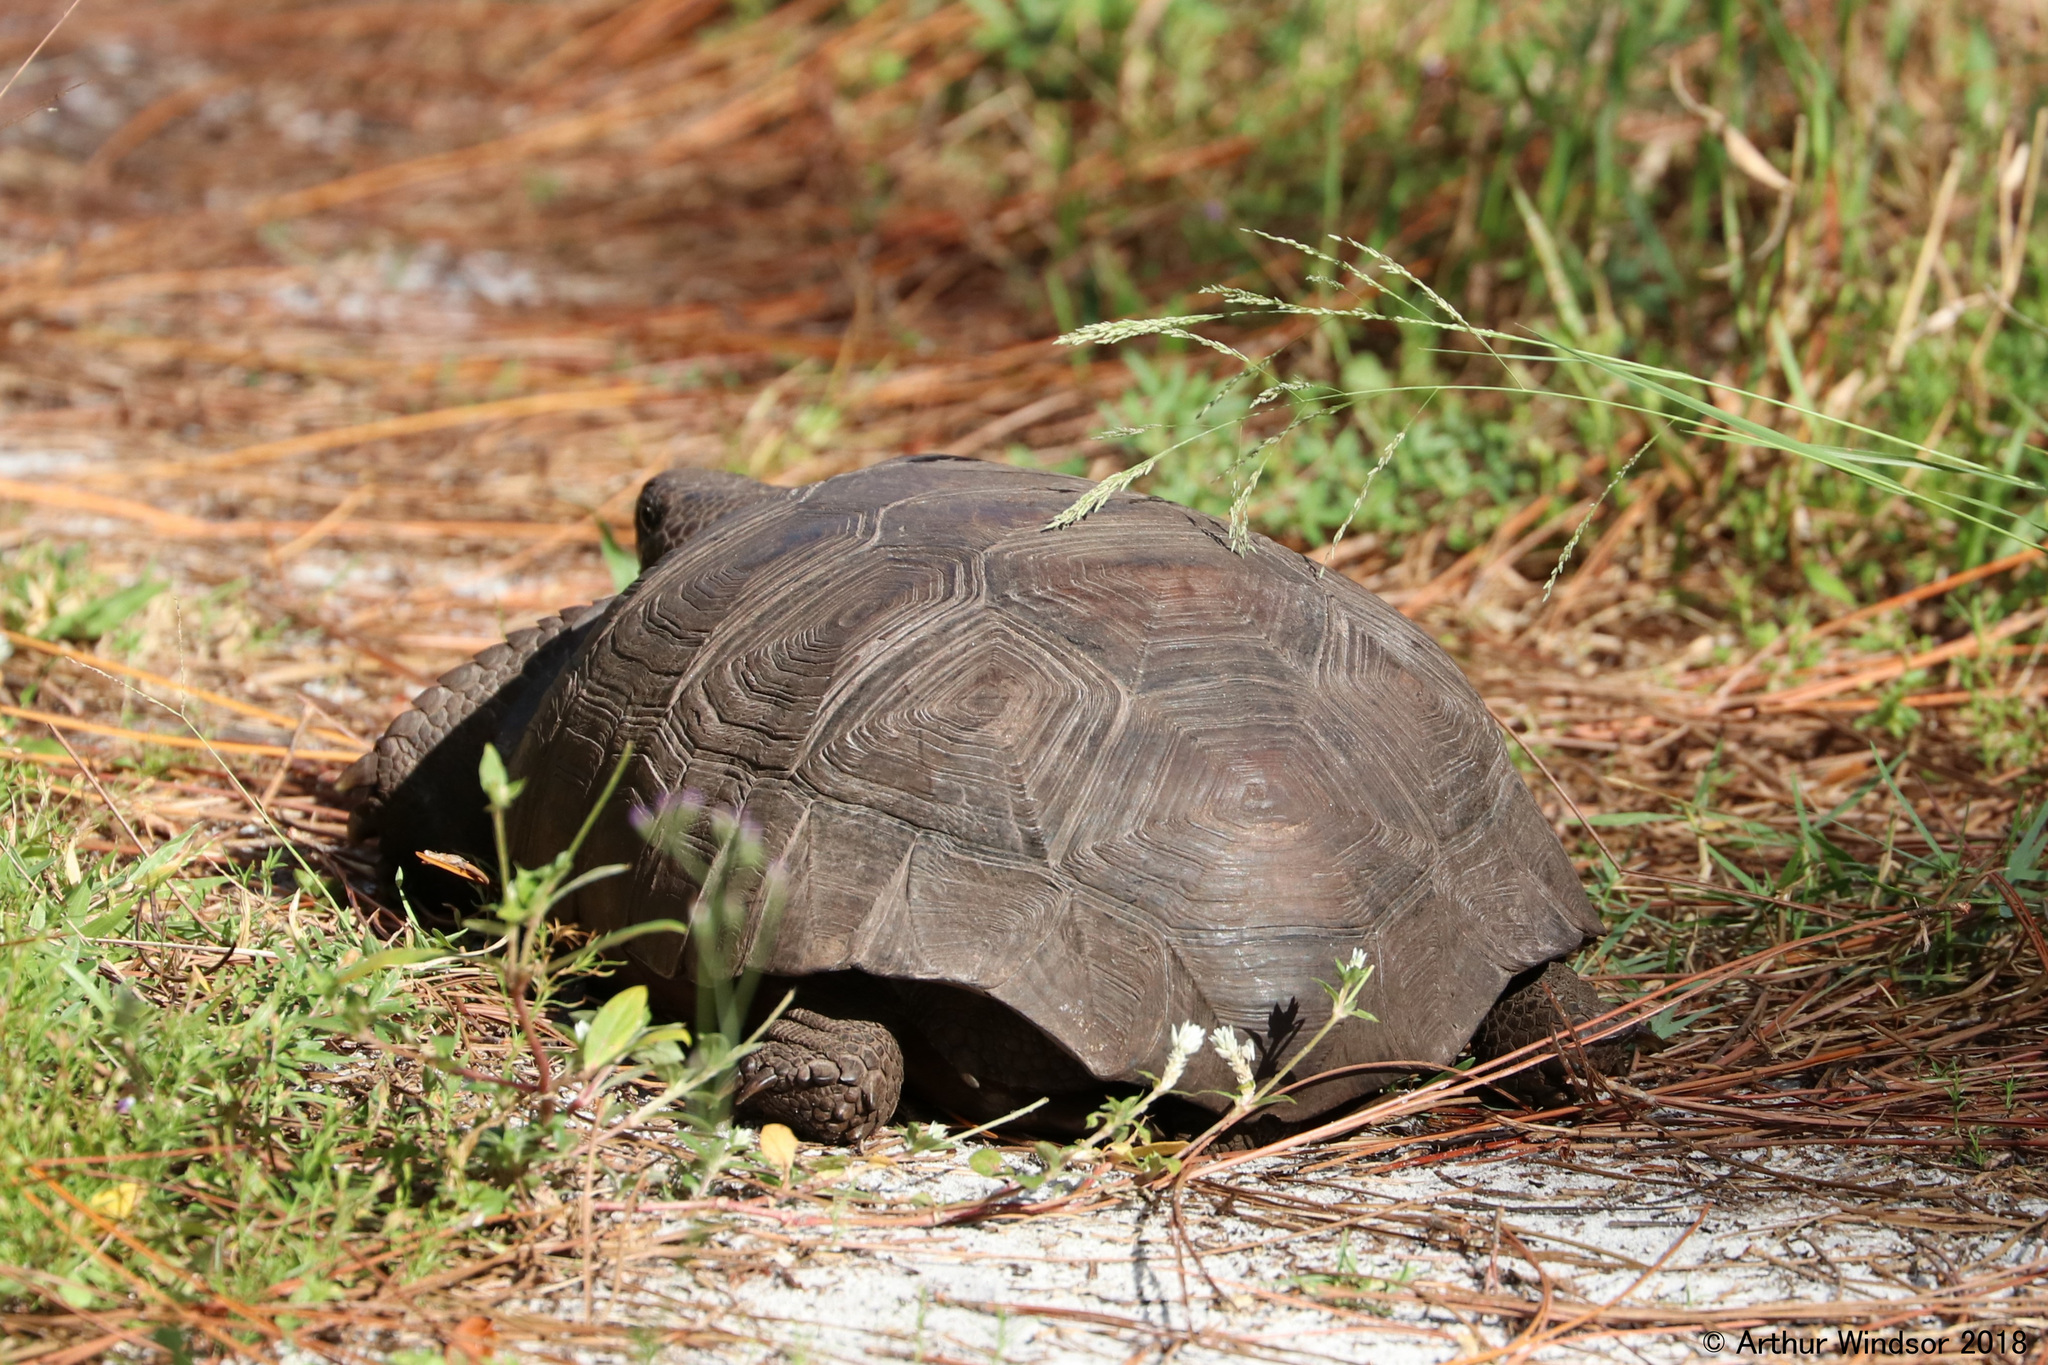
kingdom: Animalia
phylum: Chordata
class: Testudines
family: Testudinidae
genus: Gopherus
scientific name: Gopherus polyphemus
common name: Florida gopher tortoise
